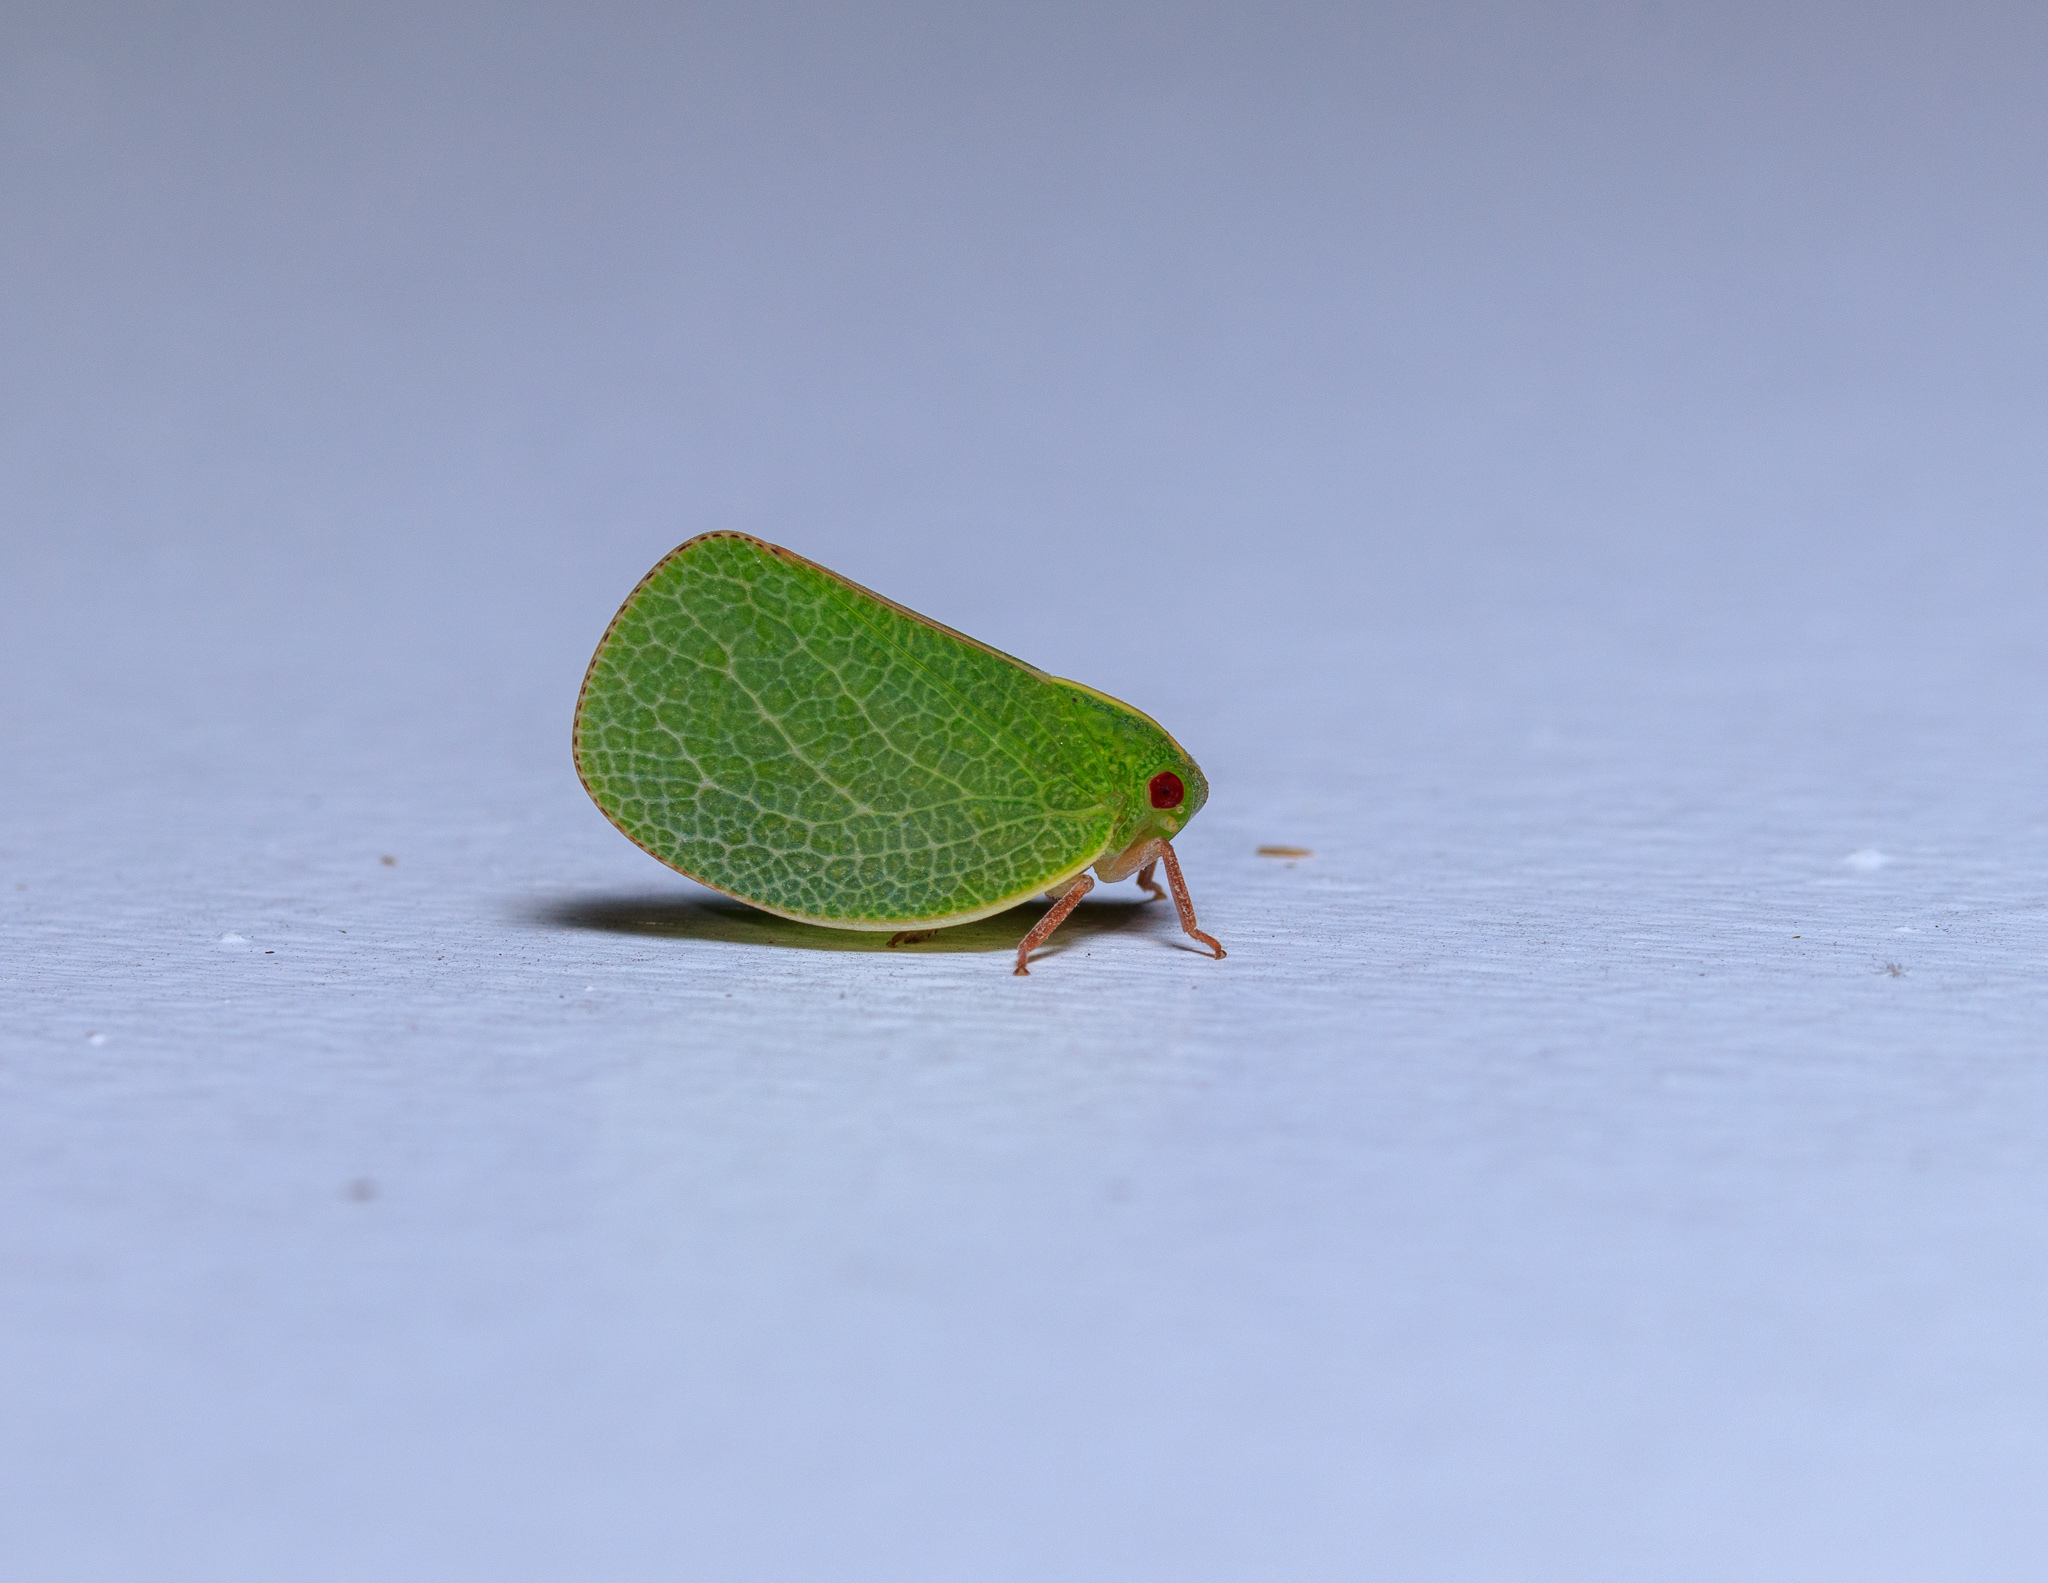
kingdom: Animalia
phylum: Arthropoda
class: Insecta
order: Hemiptera
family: Acanaloniidae
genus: Acanalonia
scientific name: Acanalonia servillei
